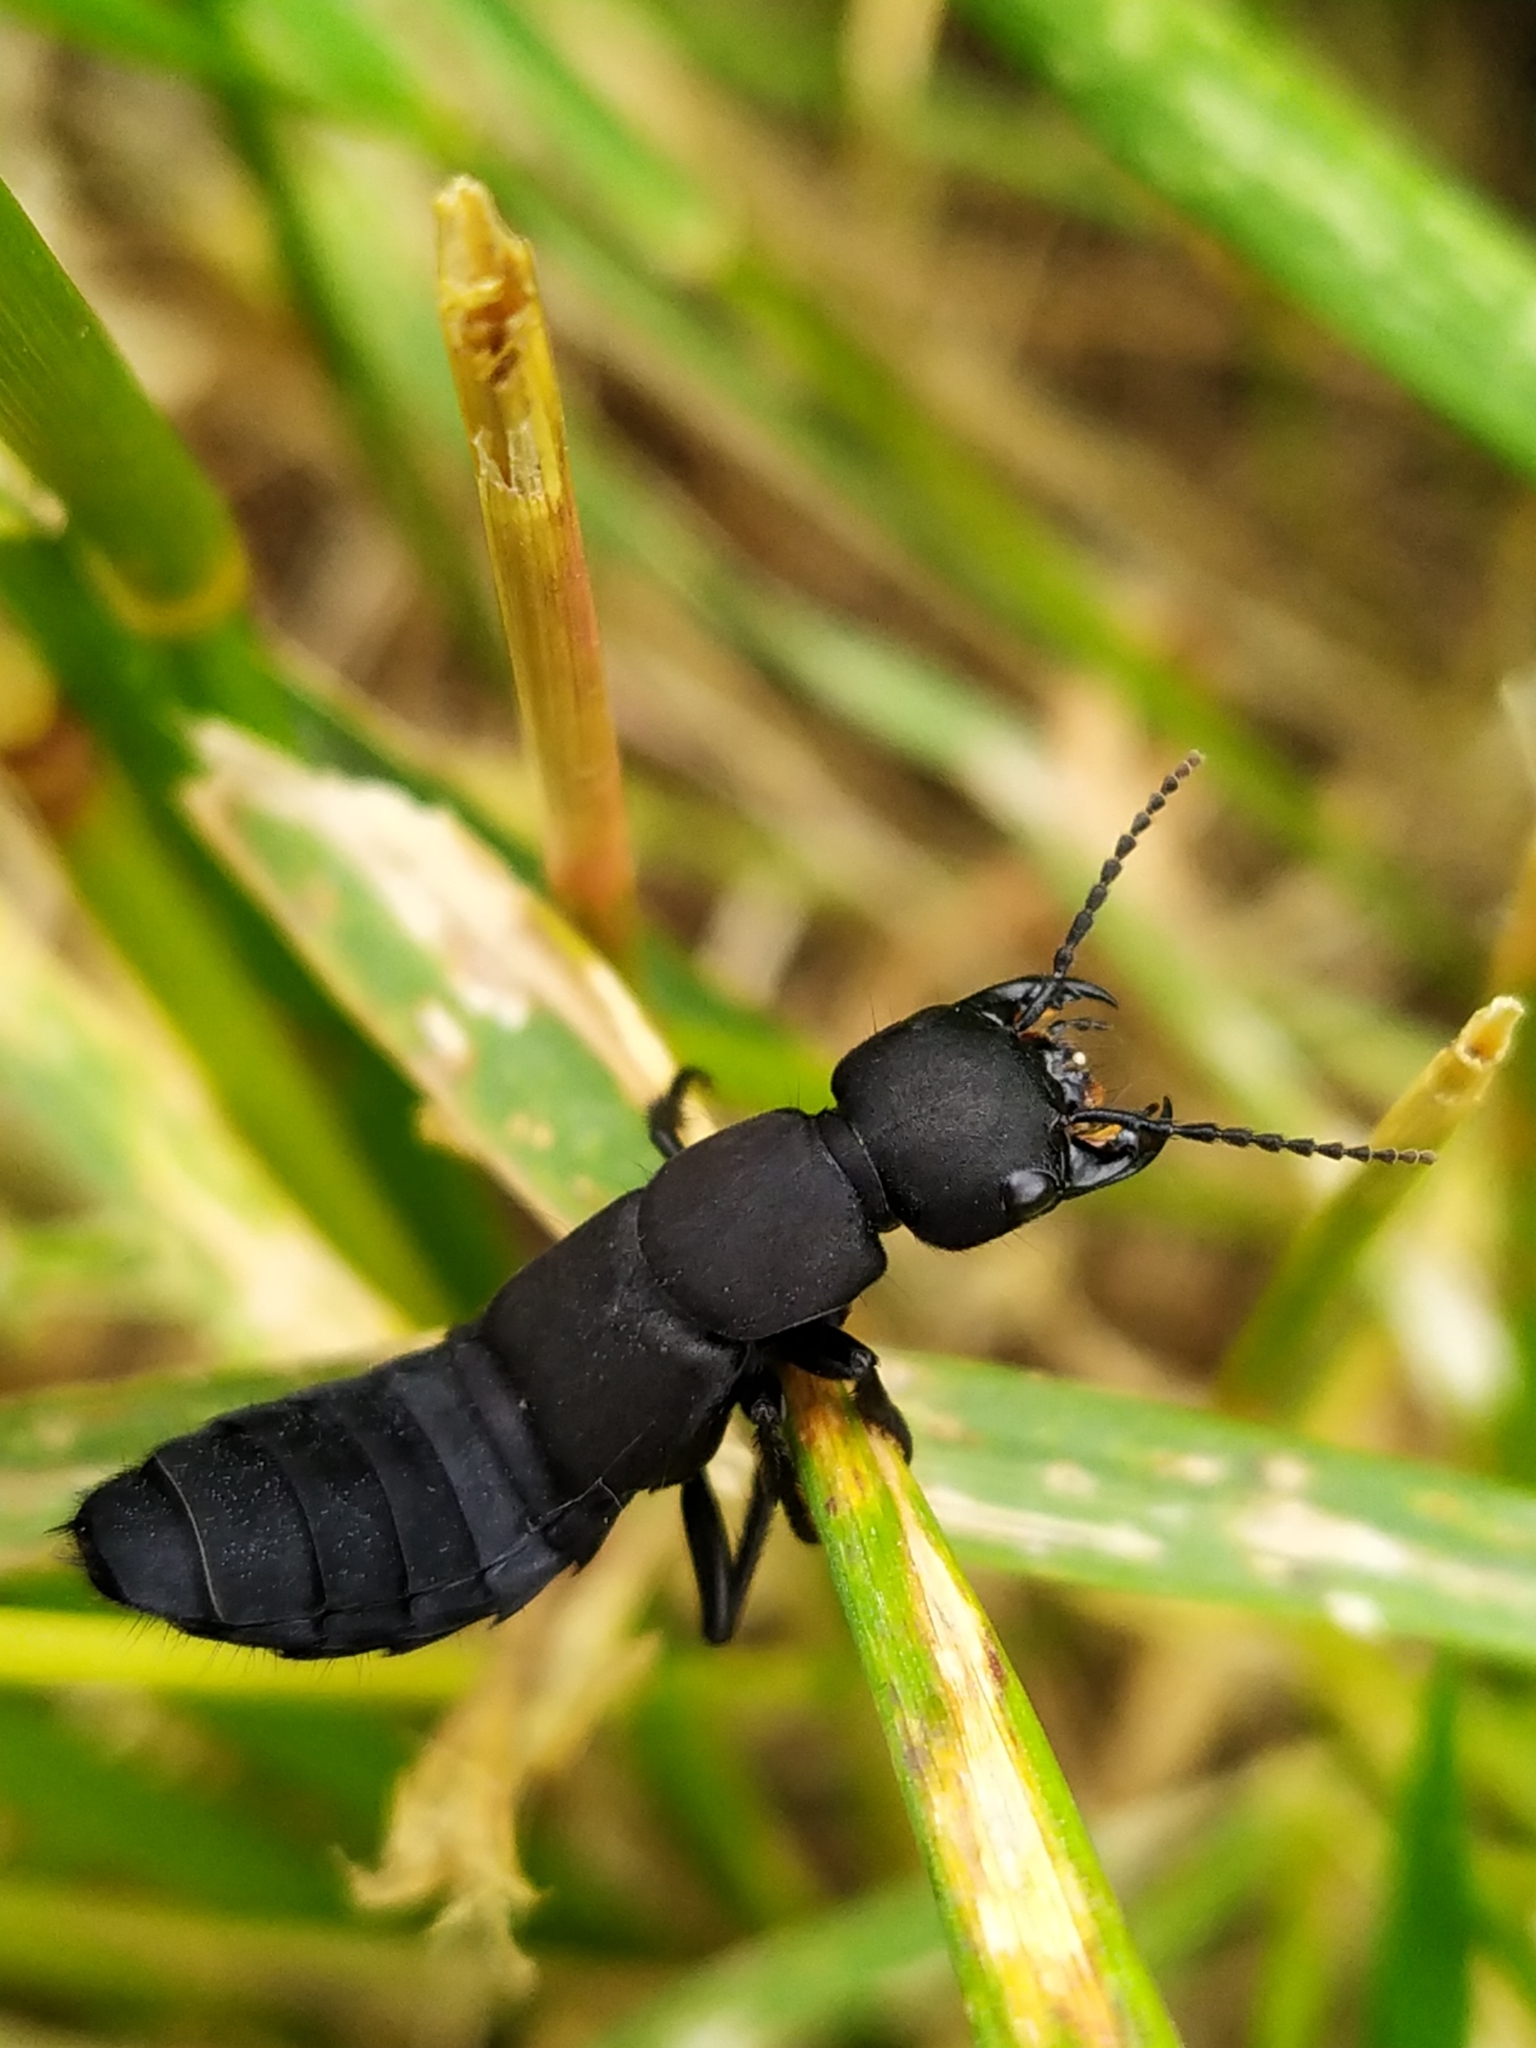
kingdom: Animalia
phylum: Arthropoda
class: Insecta
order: Coleoptera
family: Staphylinidae
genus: Ocypus
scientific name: Ocypus olens
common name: Devil's coach-horse
